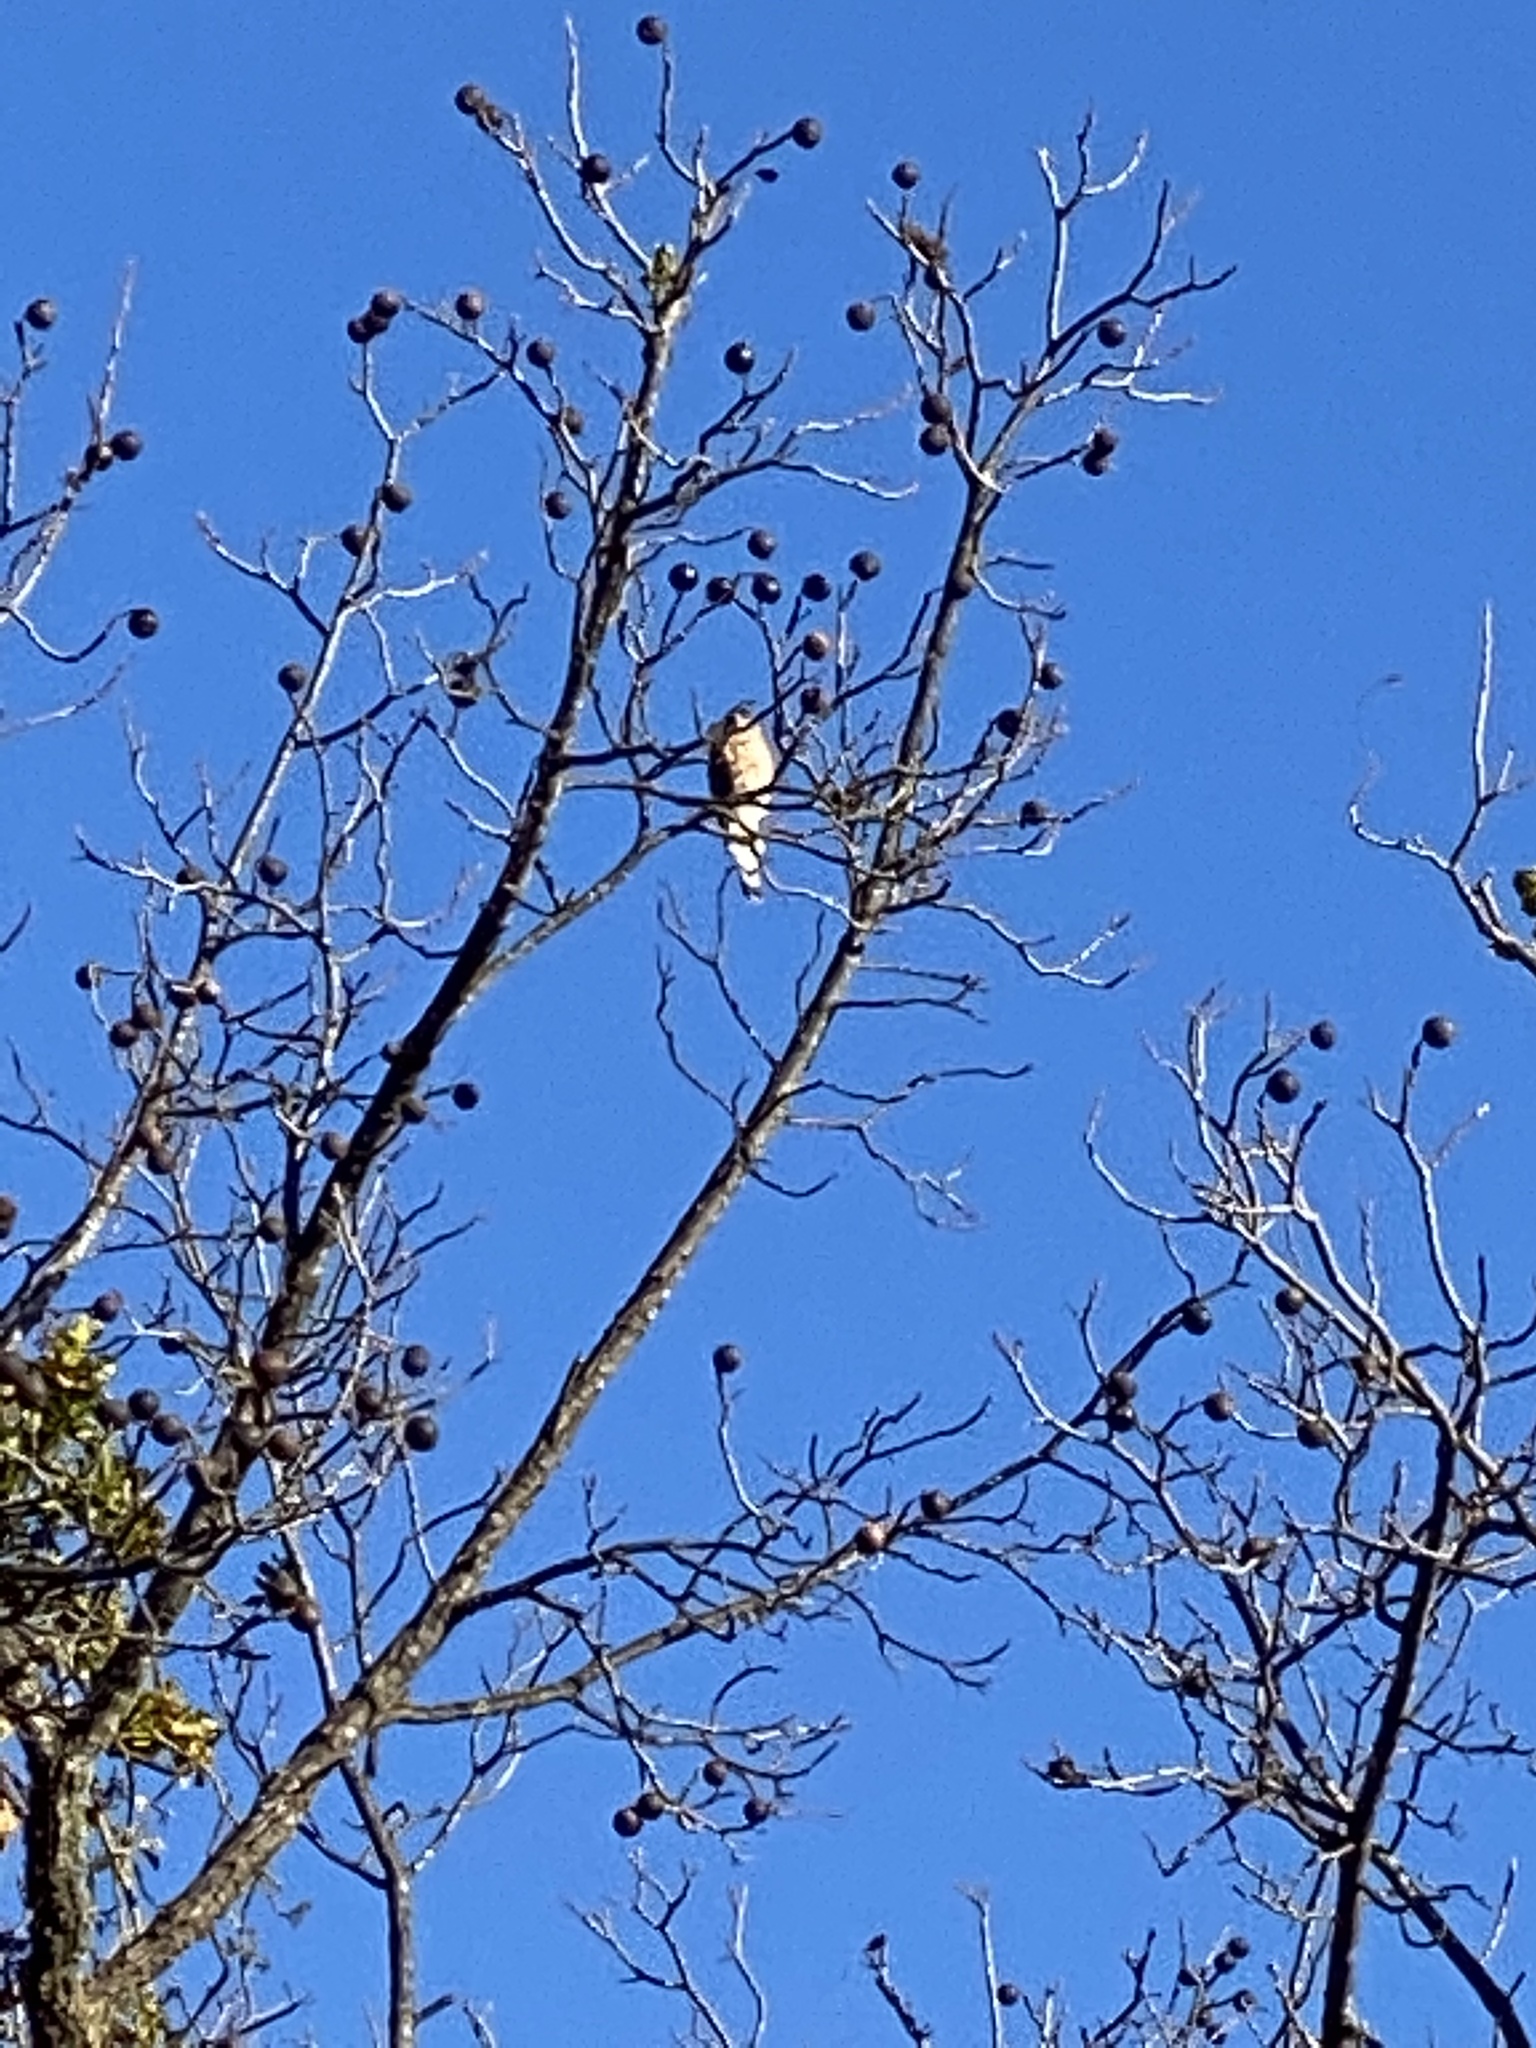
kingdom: Animalia
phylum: Chordata
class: Aves
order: Accipitriformes
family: Accipitridae
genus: Accipiter
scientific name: Accipiter
